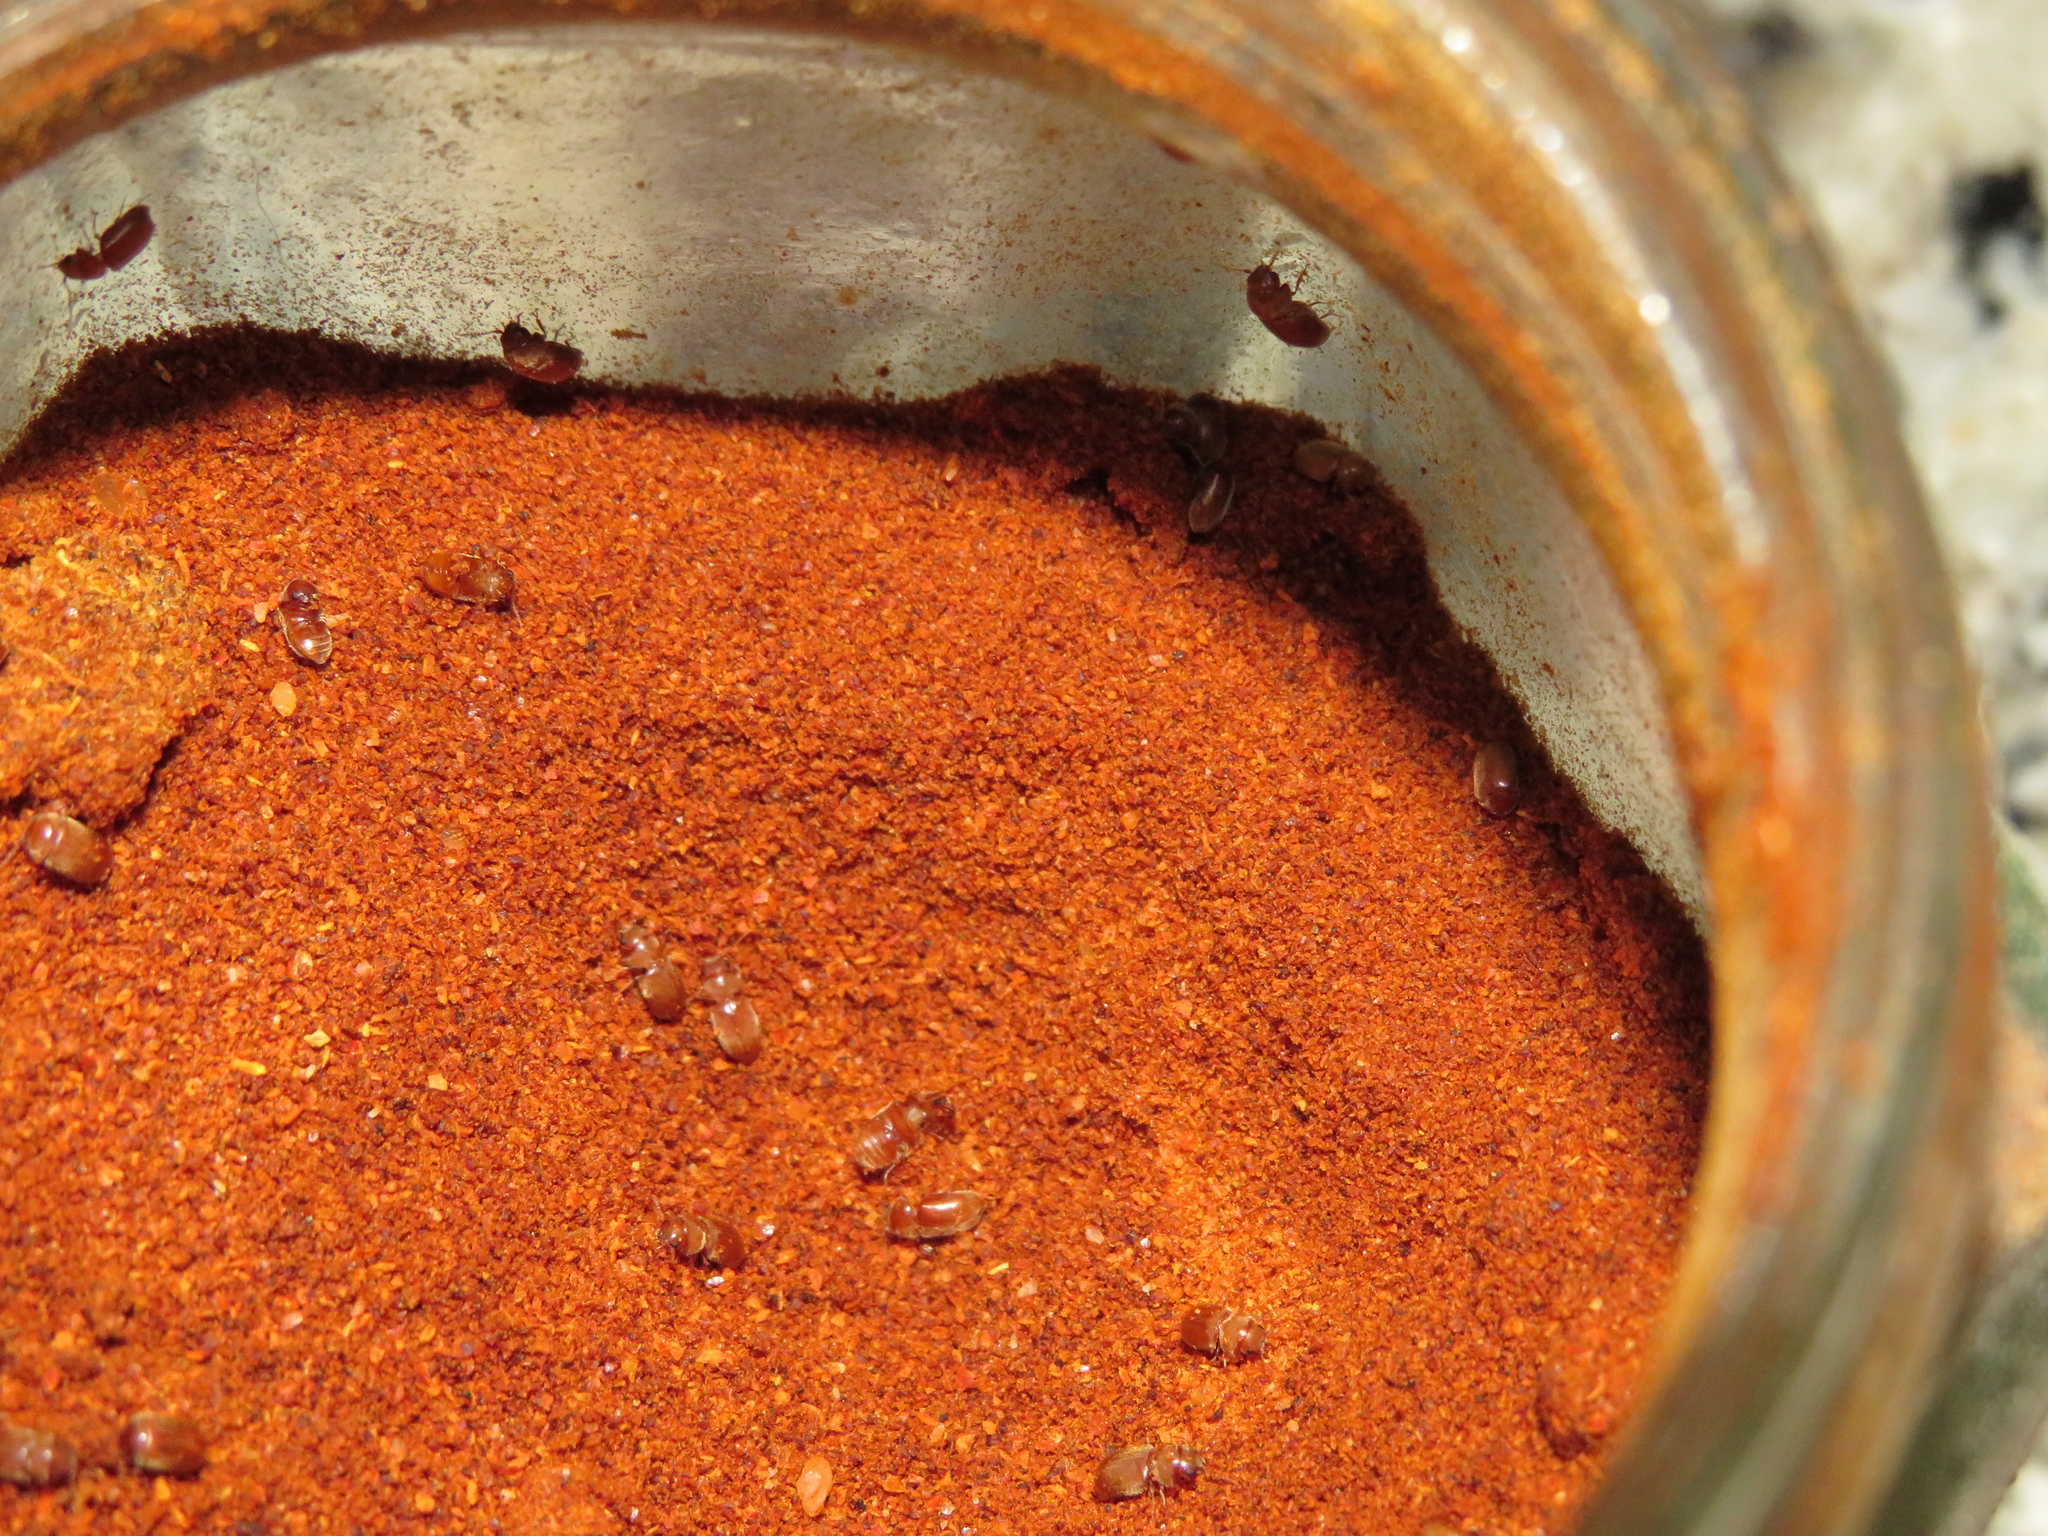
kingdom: Animalia
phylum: Arthropoda
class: Insecta
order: Coleoptera
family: Anobiidae
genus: Lasioderma
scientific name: Lasioderma serricorne
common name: Cigarette beetle
